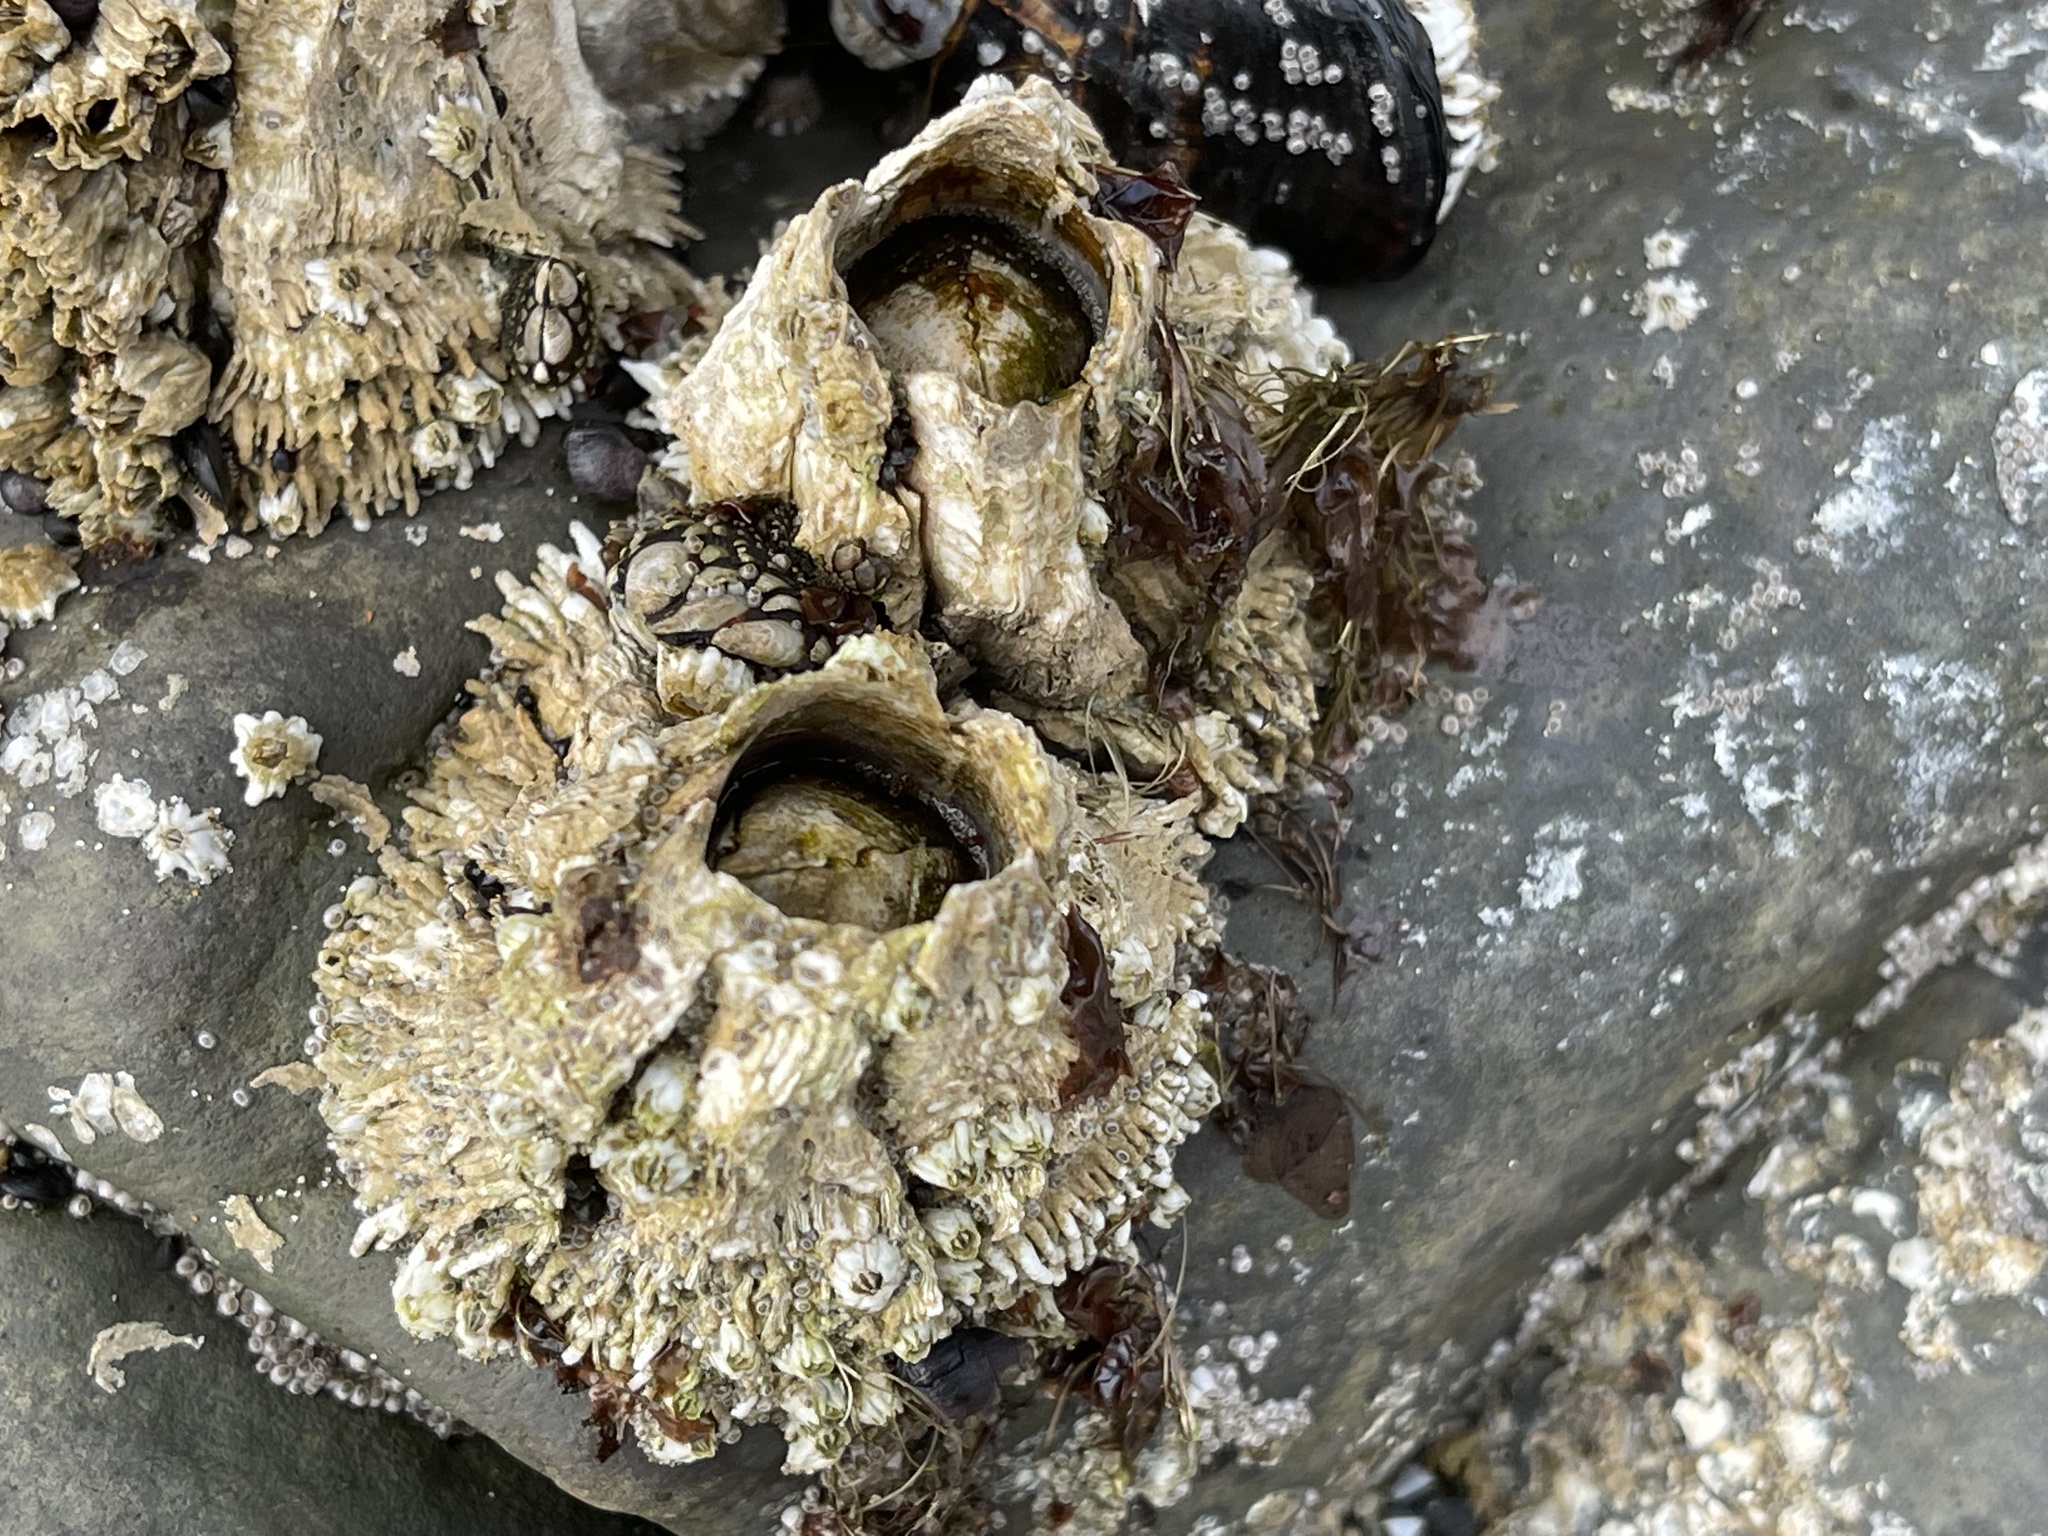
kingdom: Animalia
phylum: Arthropoda
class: Maxillopoda
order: Sessilia
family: Archaeobalanidae
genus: Semibalanus
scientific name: Semibalanus cariosus
